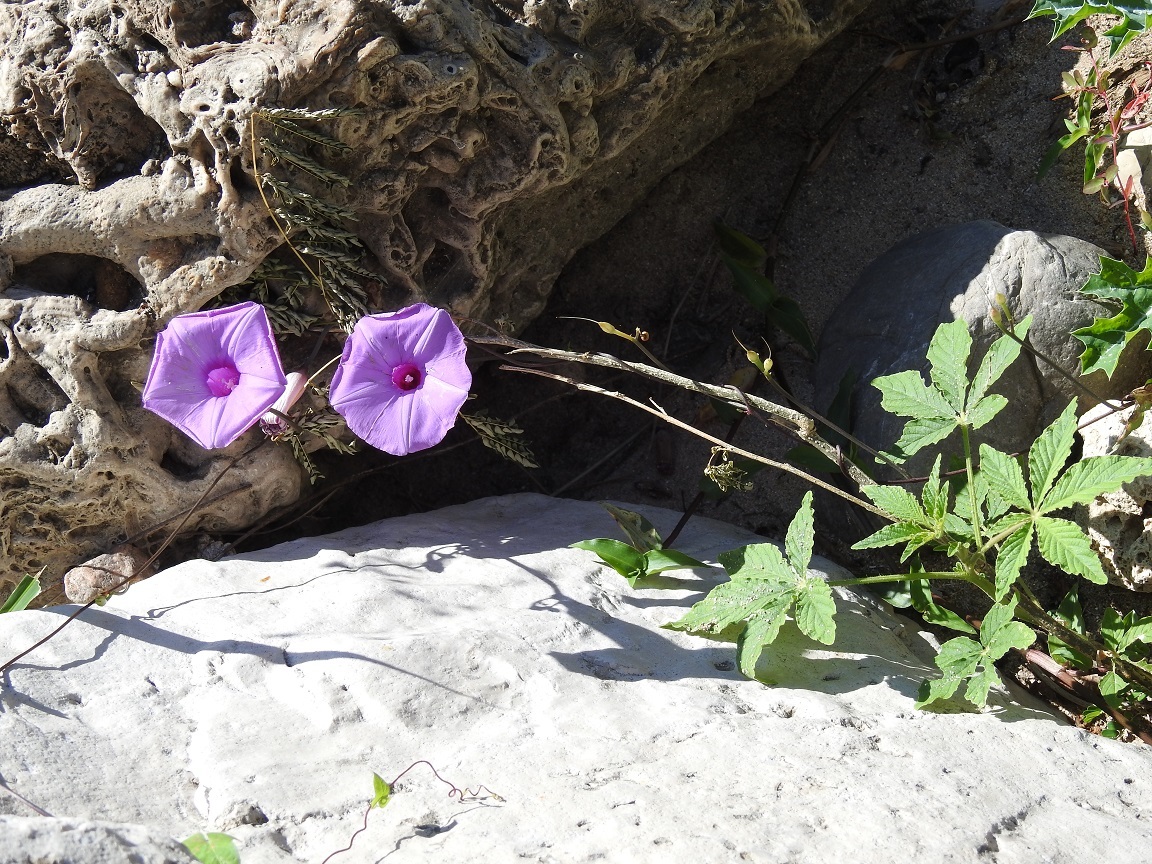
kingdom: Plantae
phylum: Tracheophyta
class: Magnoliopsida
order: Solanales
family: Convolvulaceae
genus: Ipomoea
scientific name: Ipomoea trifida
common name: Cotton morningglory
